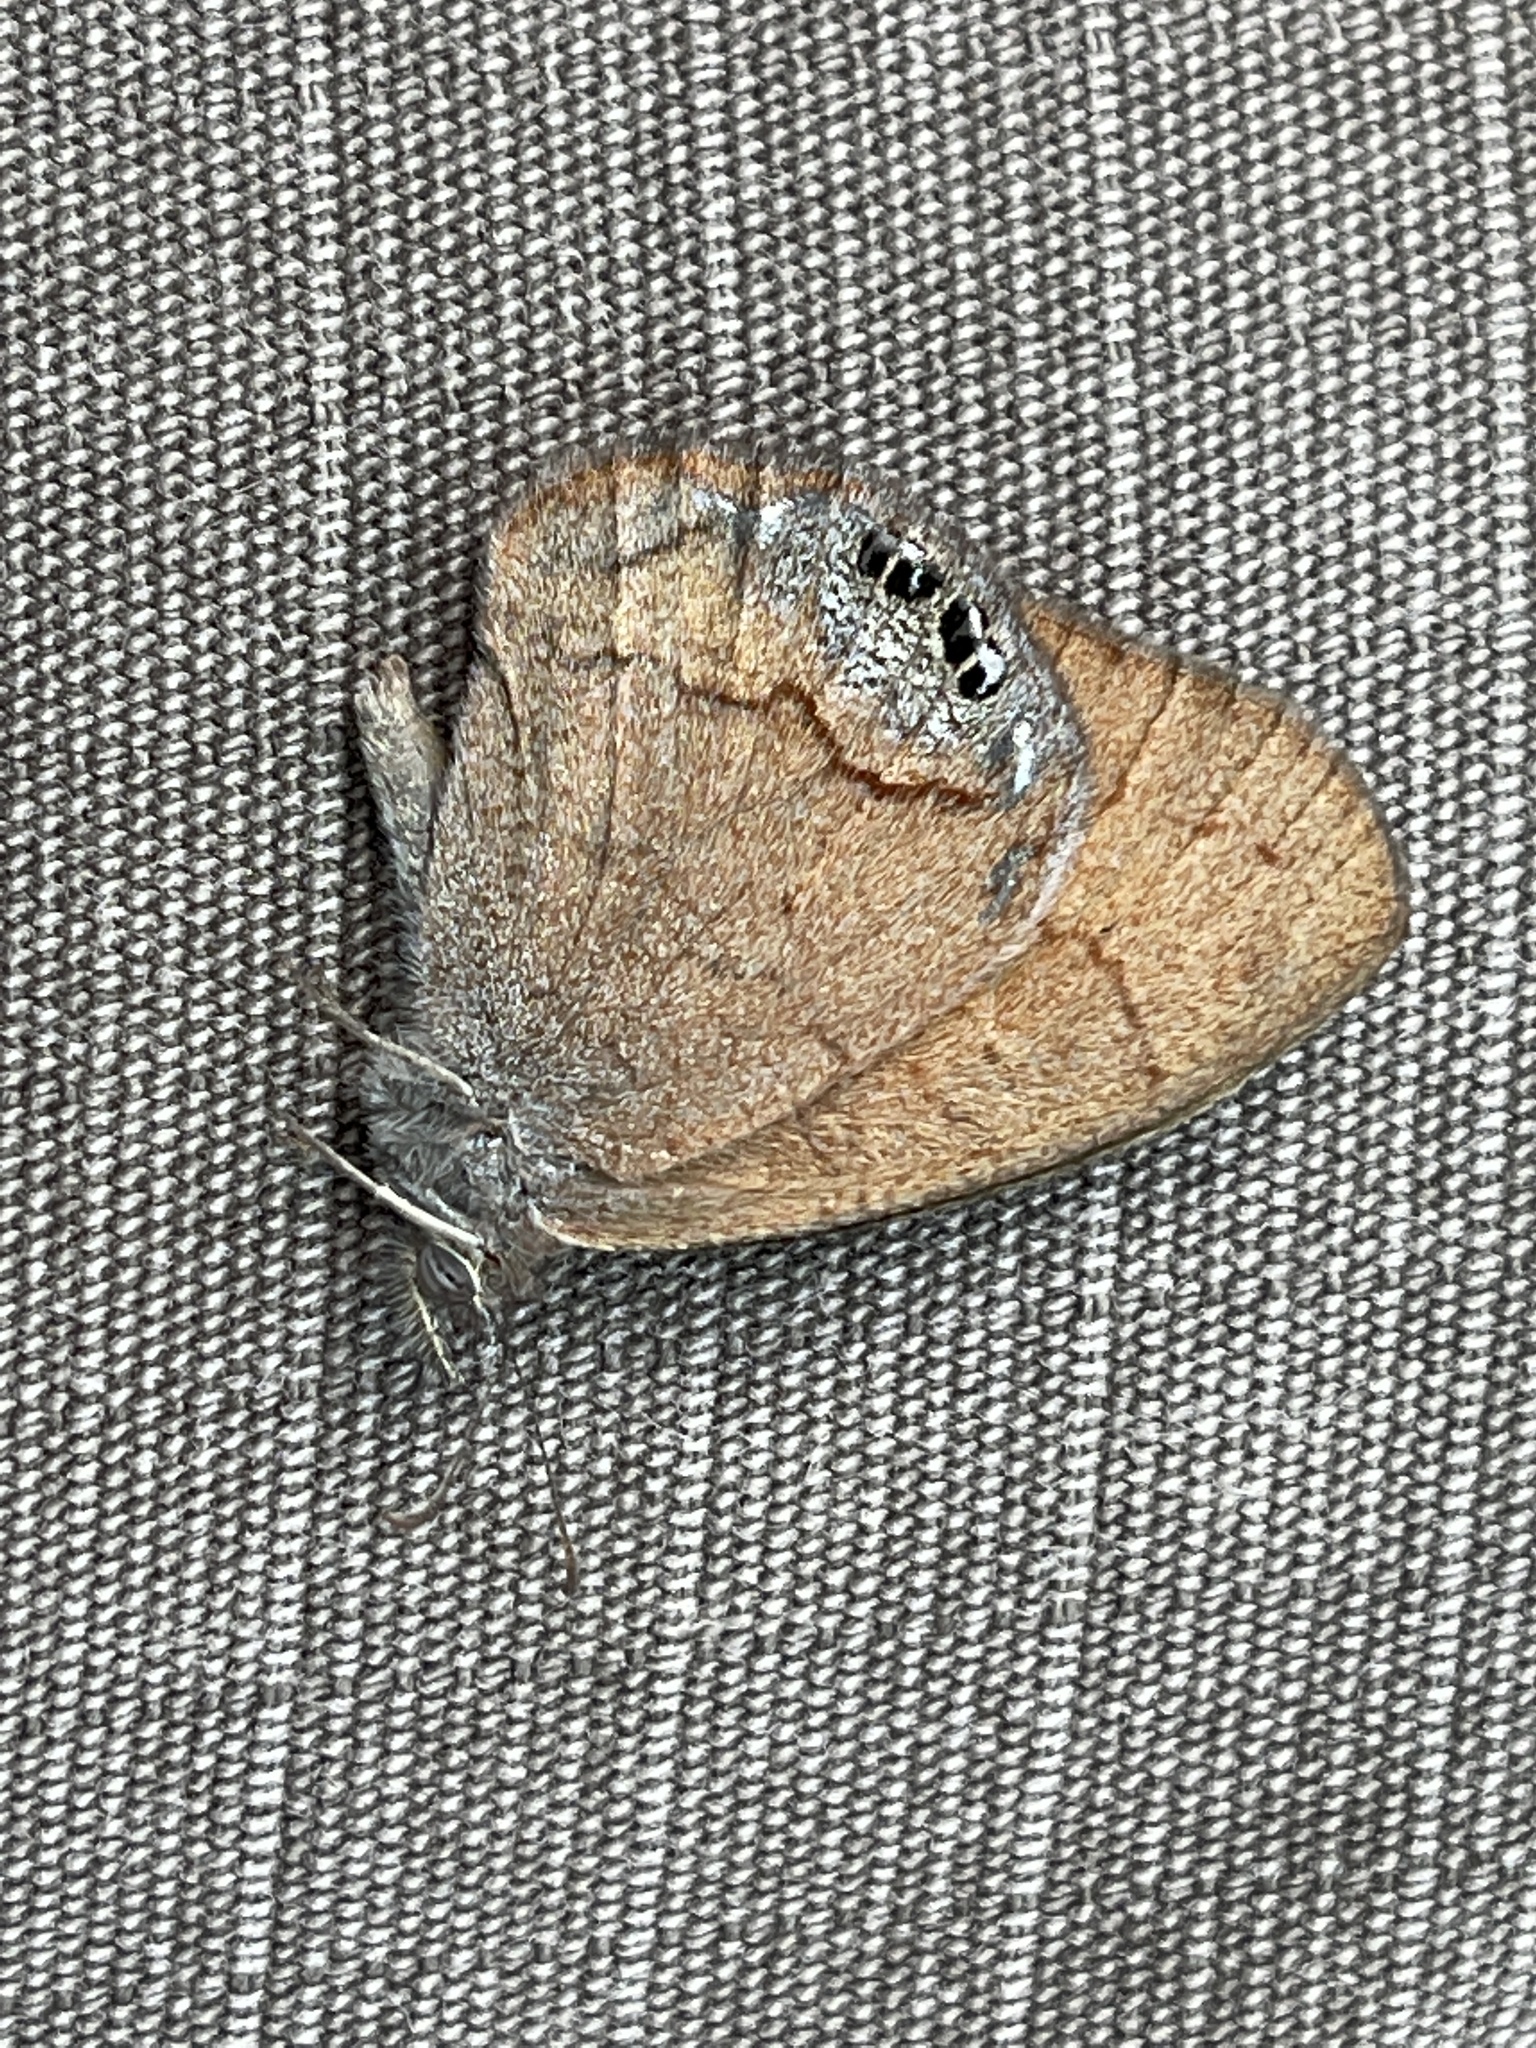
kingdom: Animalia
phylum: Arthropoda
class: Insecta
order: Lepidoptera
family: Nymphalidae
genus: Euptychia
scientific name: Euptychia Cyllopsis pertepida
